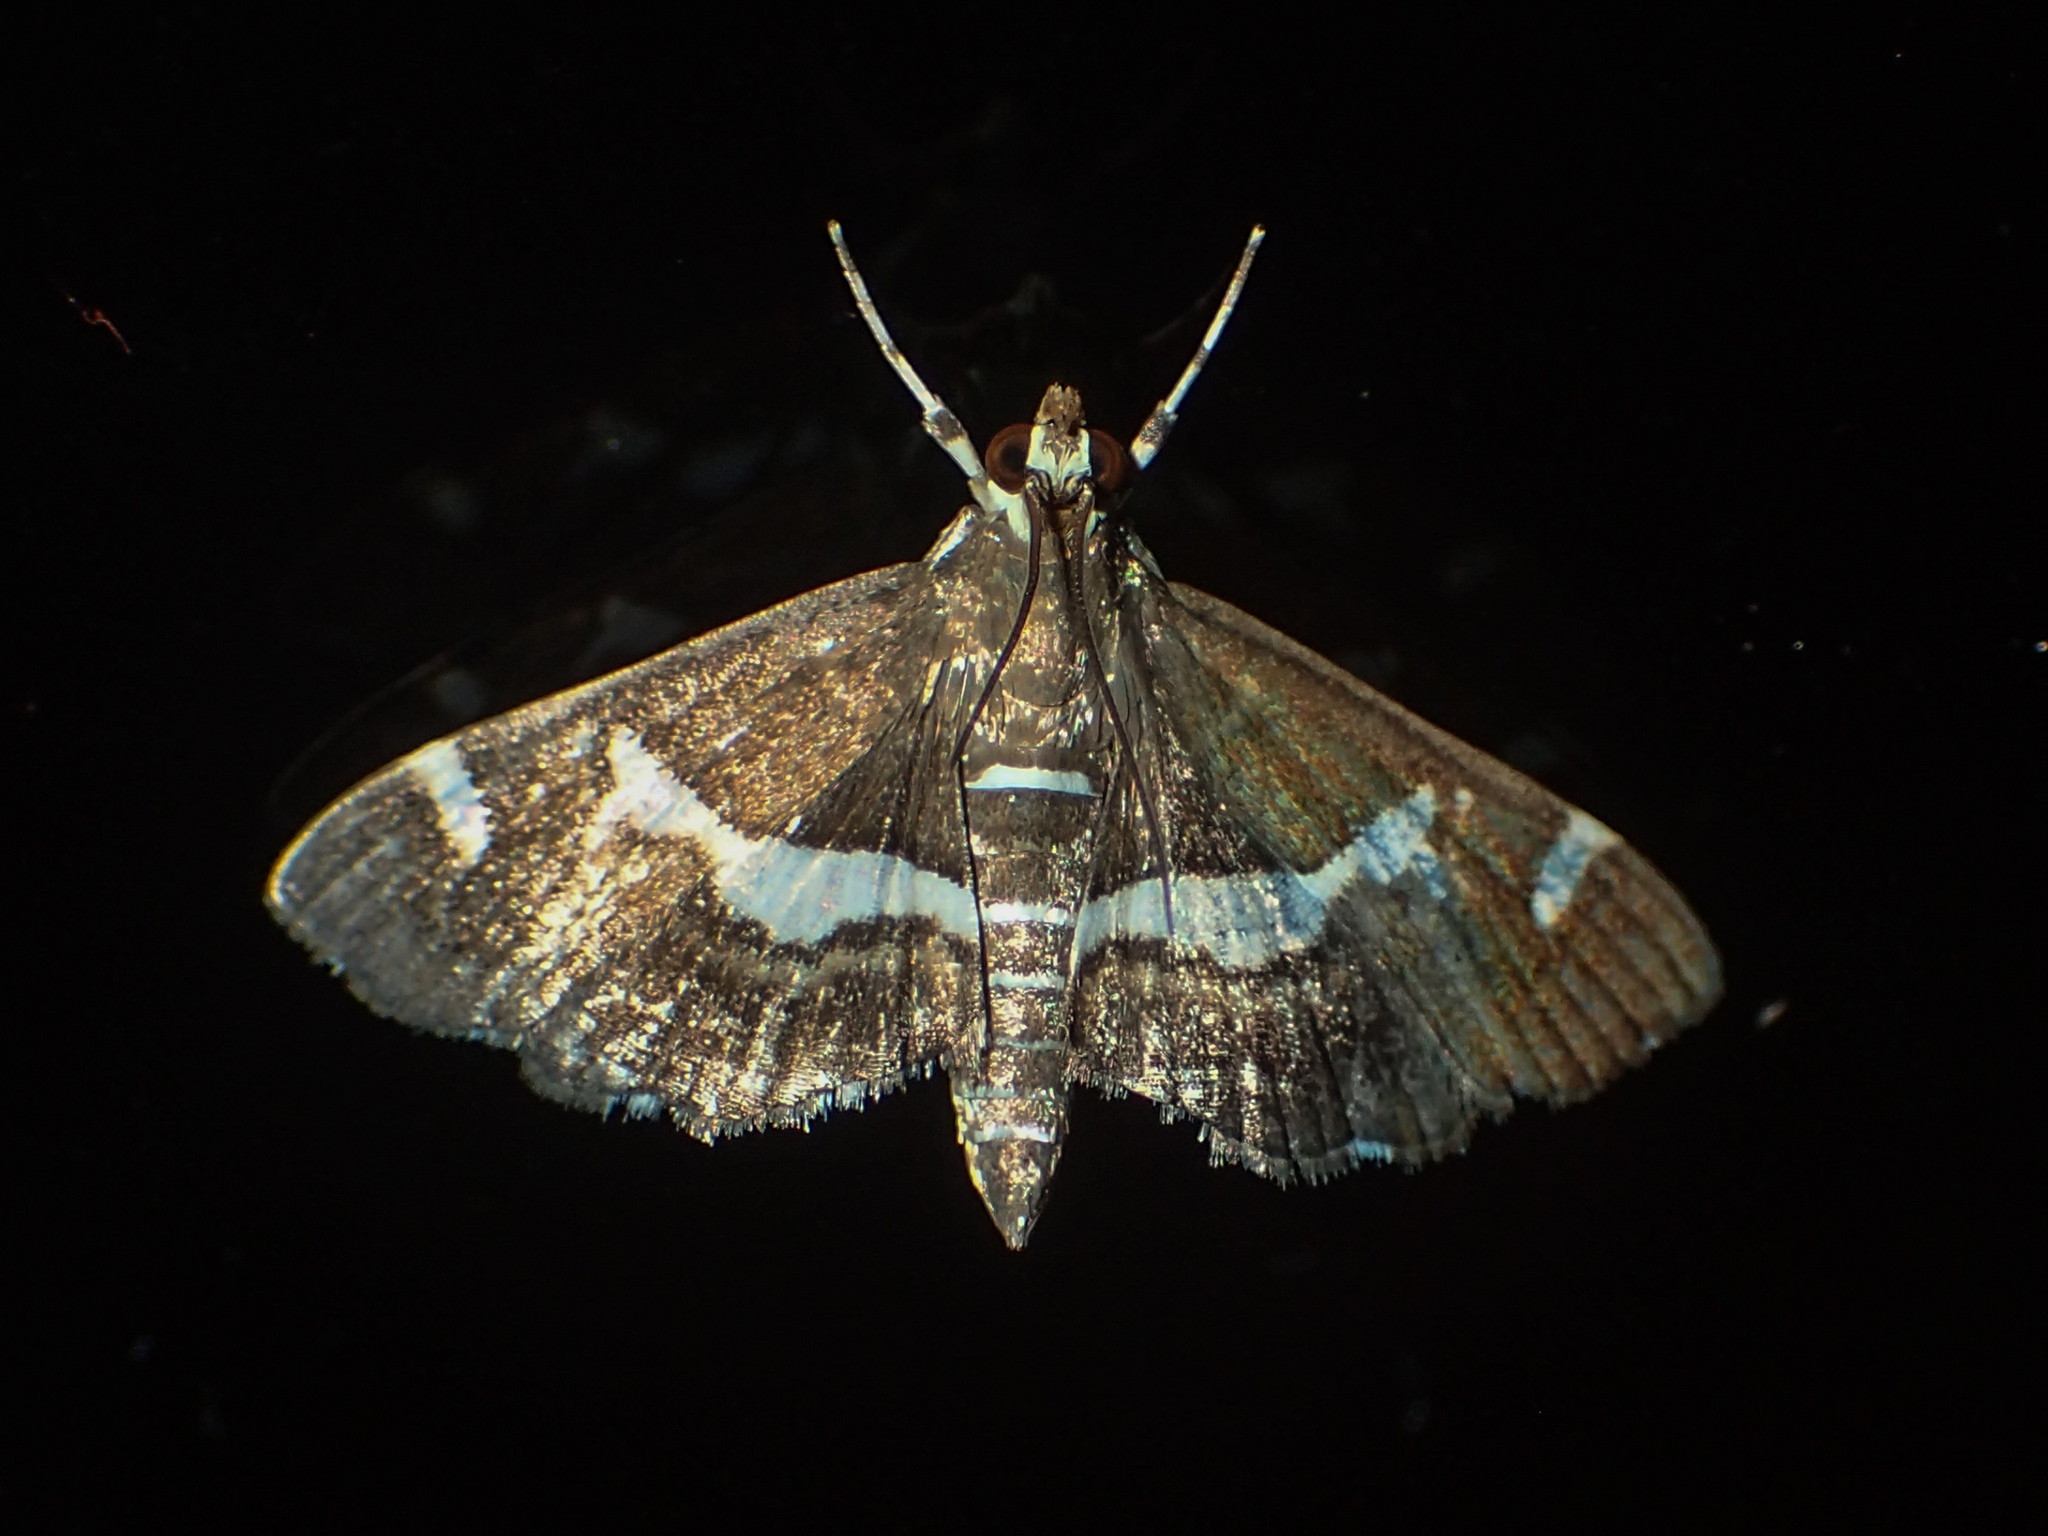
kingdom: Animalia
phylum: Arthropoda
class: Insecta
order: Lepidoptera
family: Crambidae
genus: Spoladea
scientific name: Spoladea recurvalis
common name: Beet webworm moth
